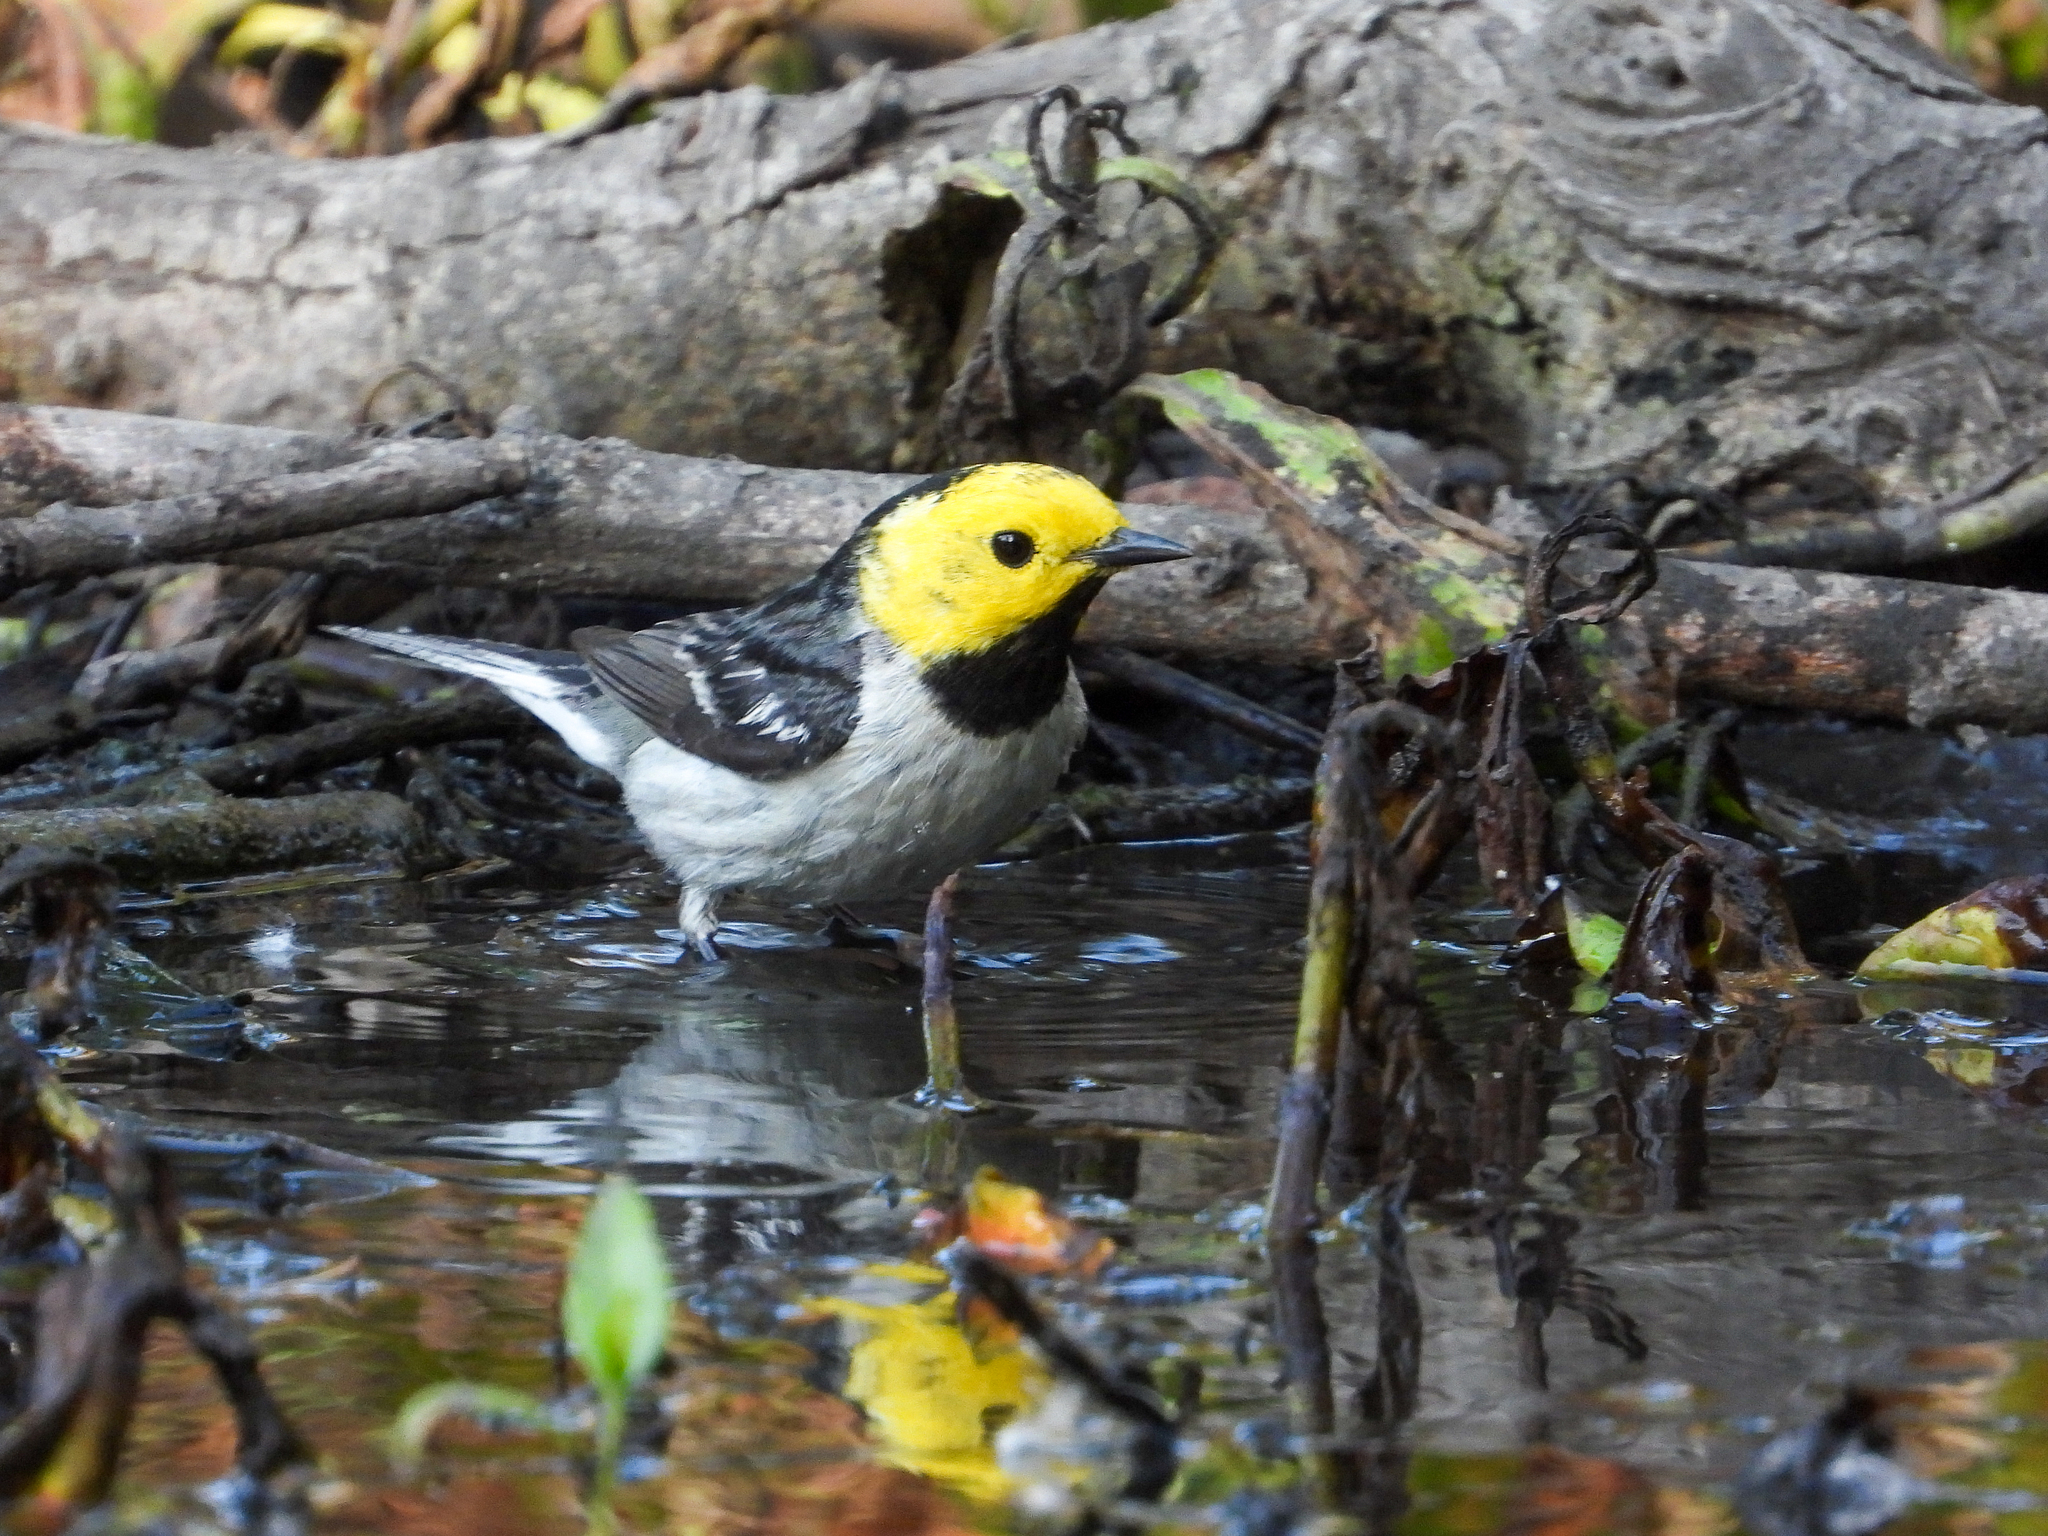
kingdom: Animalia
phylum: Chordata
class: Aves
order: Passeriformes
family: Parulidae
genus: Setophaga
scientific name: Setophaga occidentalis
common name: Hermit warbler
